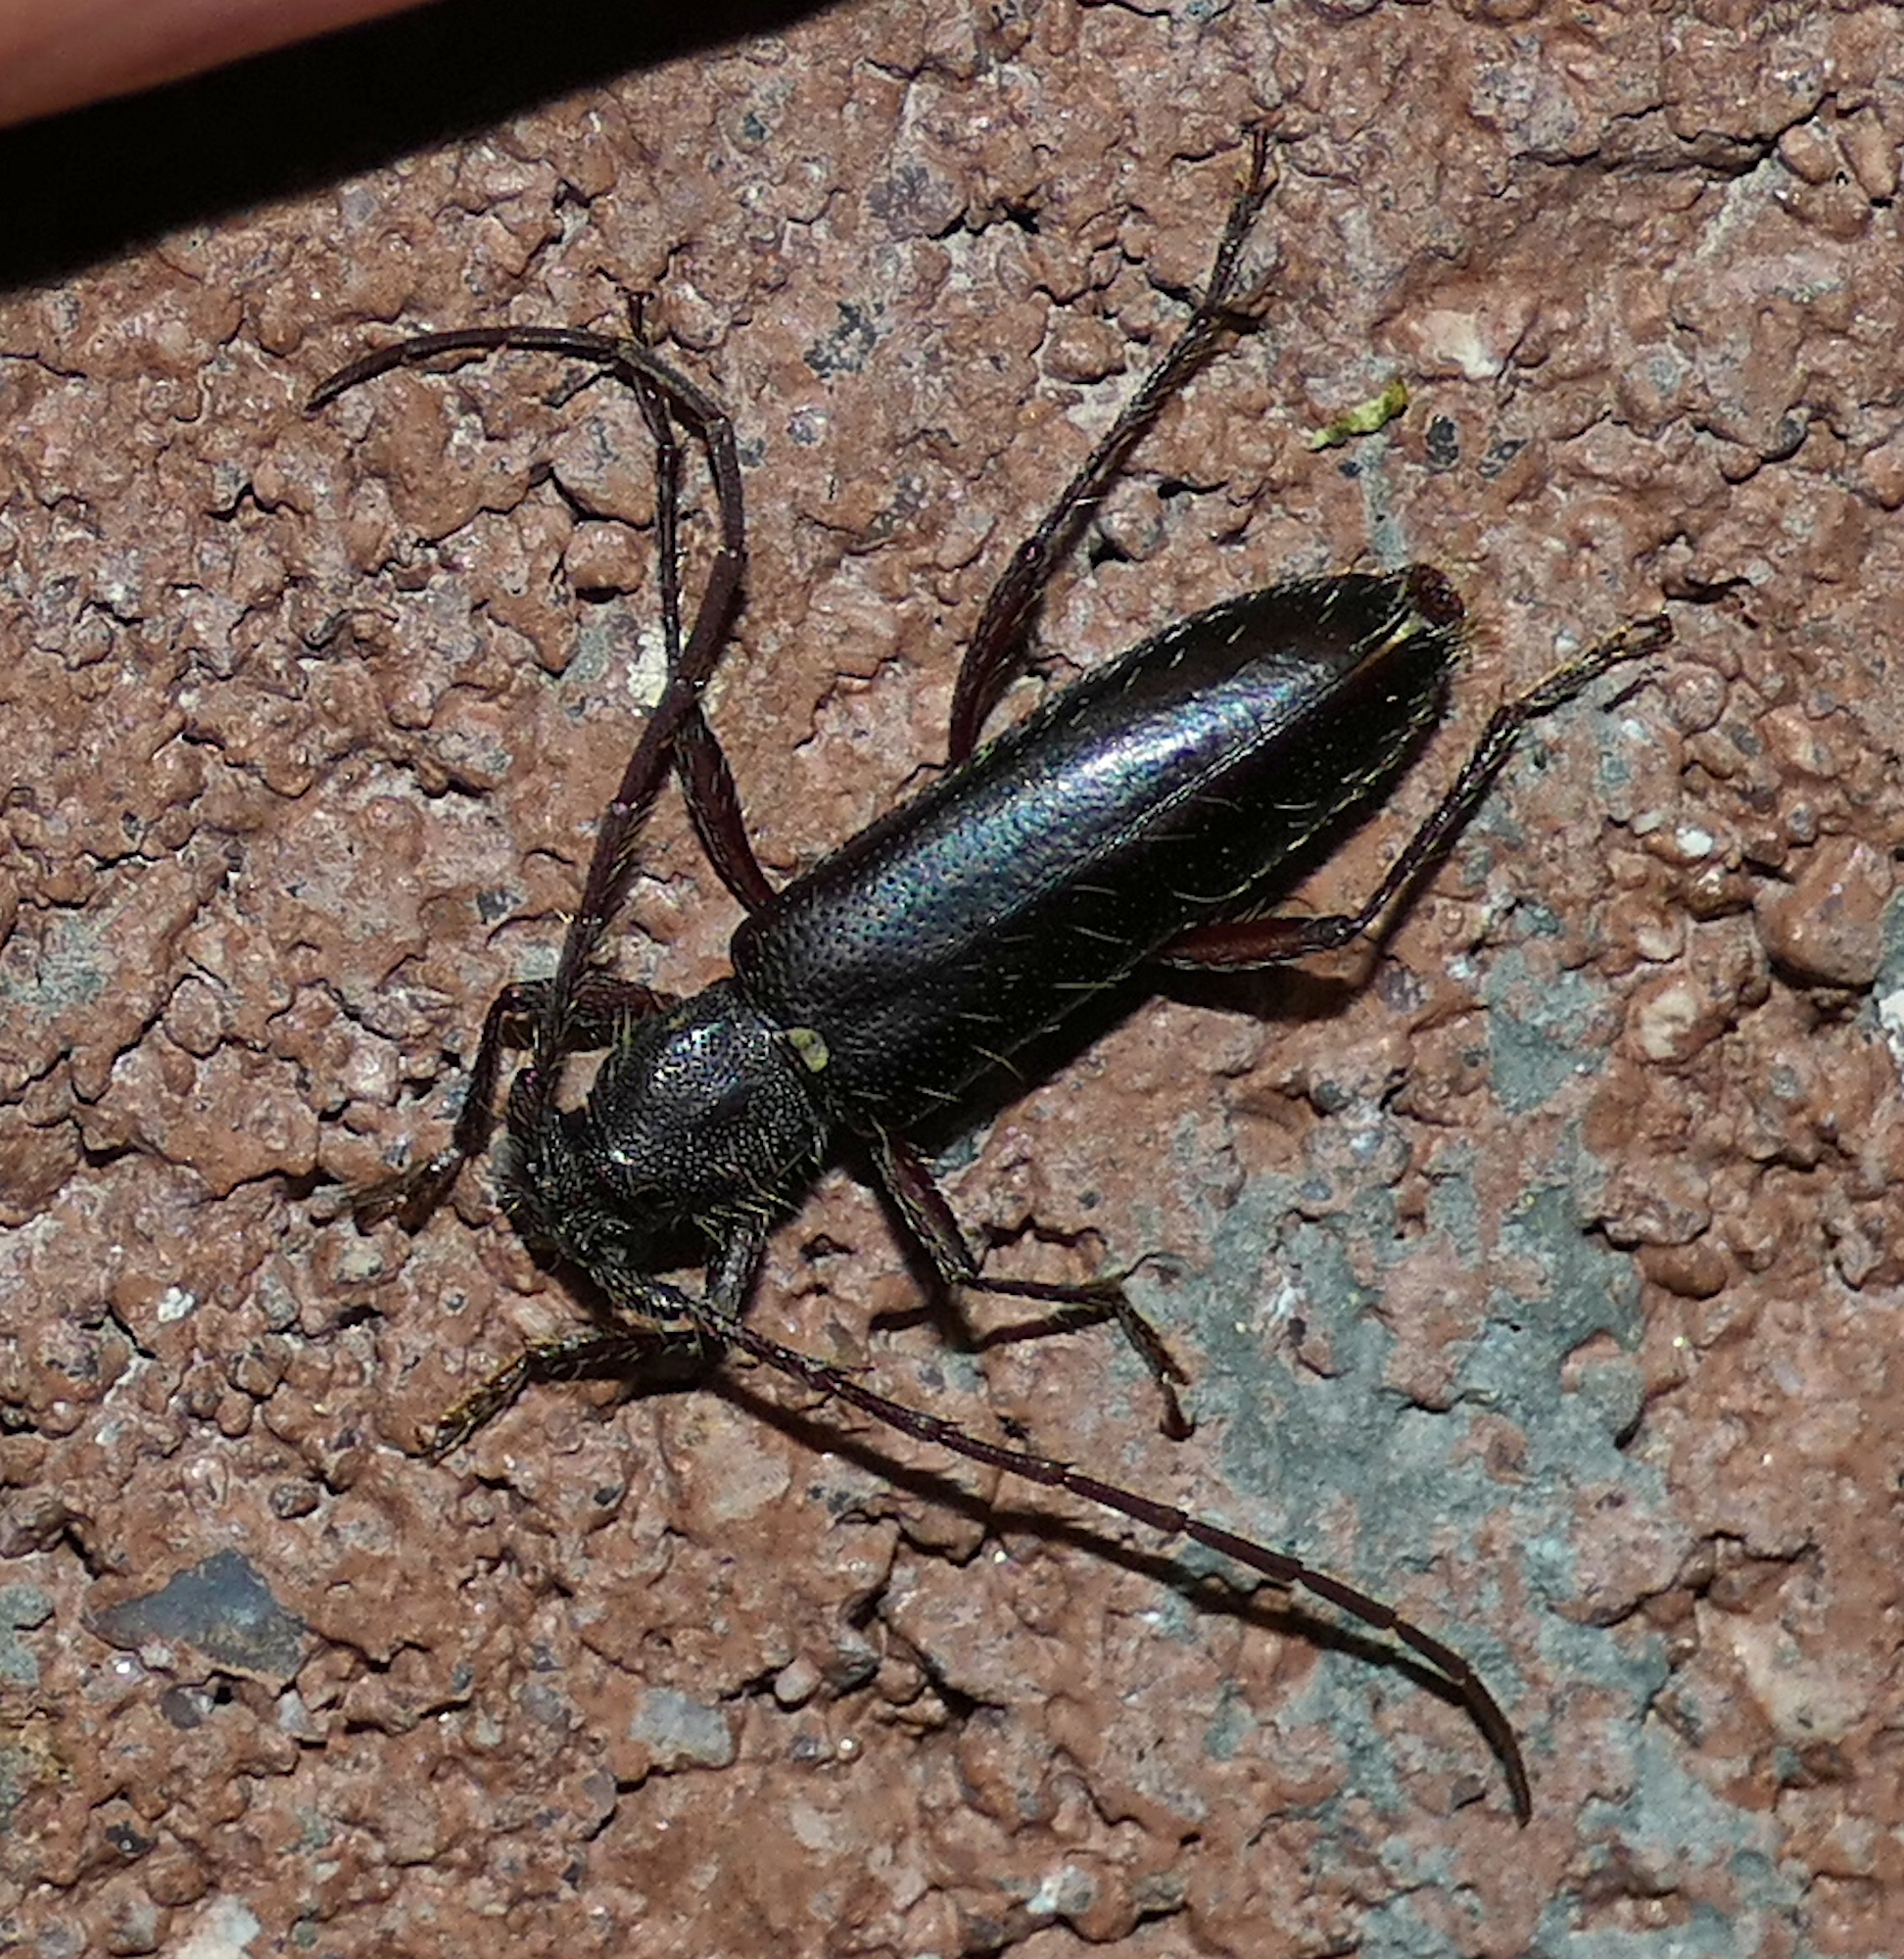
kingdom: Animalia
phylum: Arthropoda
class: Insecta
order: Coleoptera
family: Cerambycidae
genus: Stenelaphus
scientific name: Stenelaphus alienus
